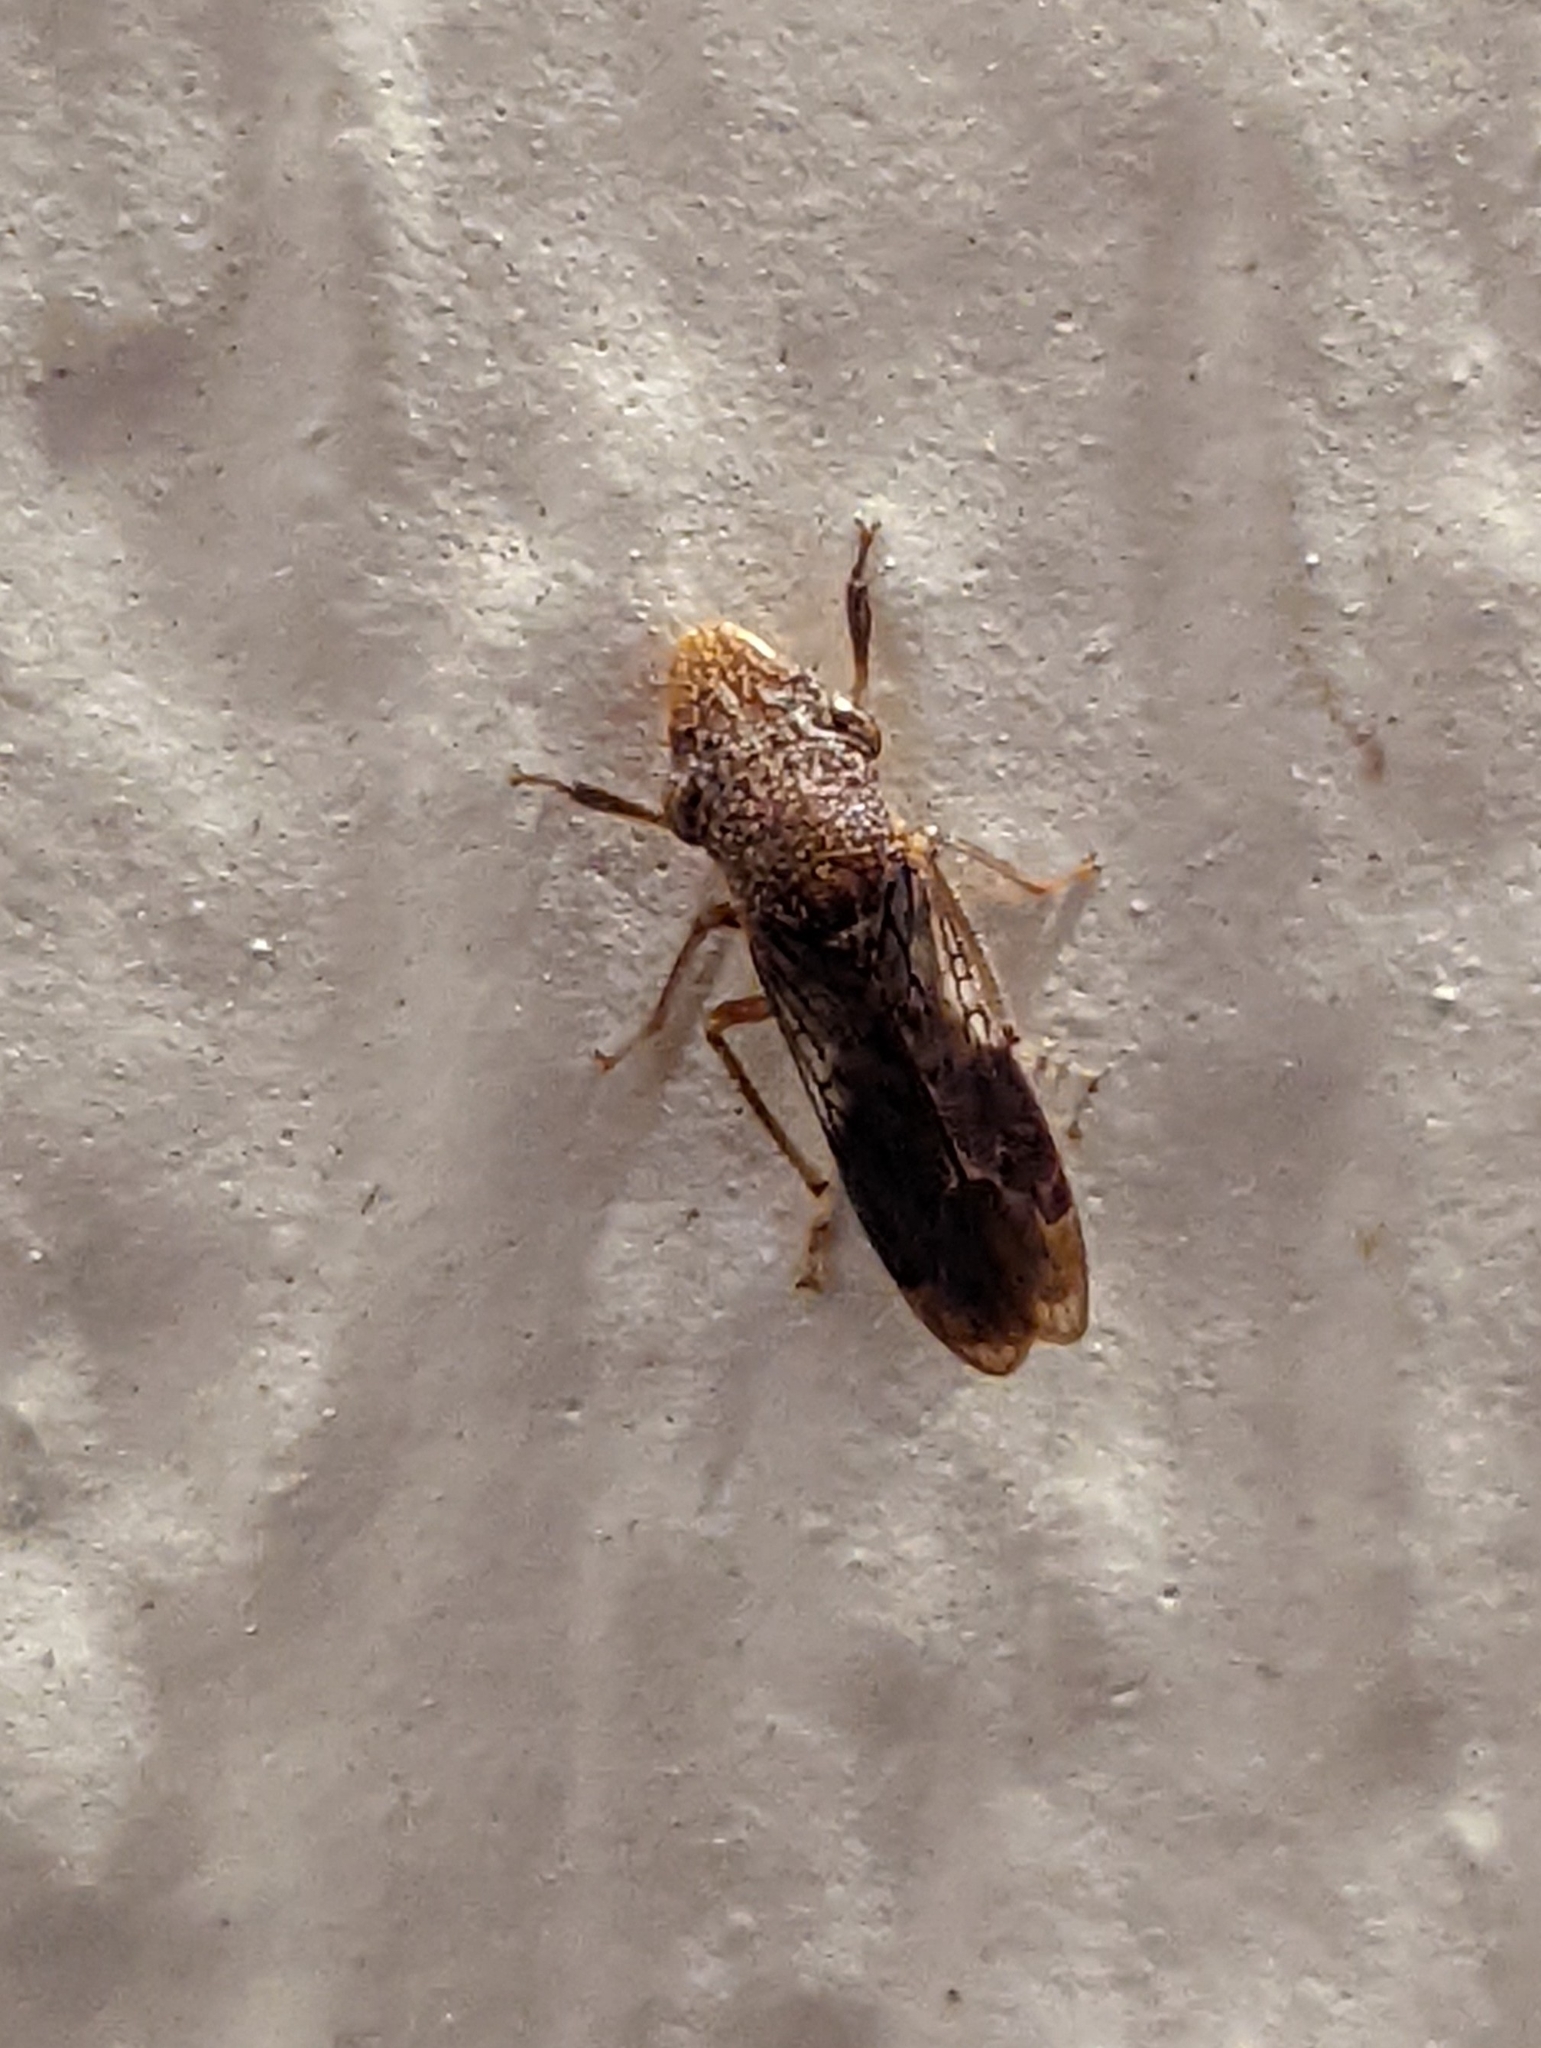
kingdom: Animalia
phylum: Arthropoda
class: Insecta
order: Hemiptera
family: Cicadellidae
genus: Homalodisca
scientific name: Homalodisca vitripennis
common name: Glassy-winged sharpshooter
